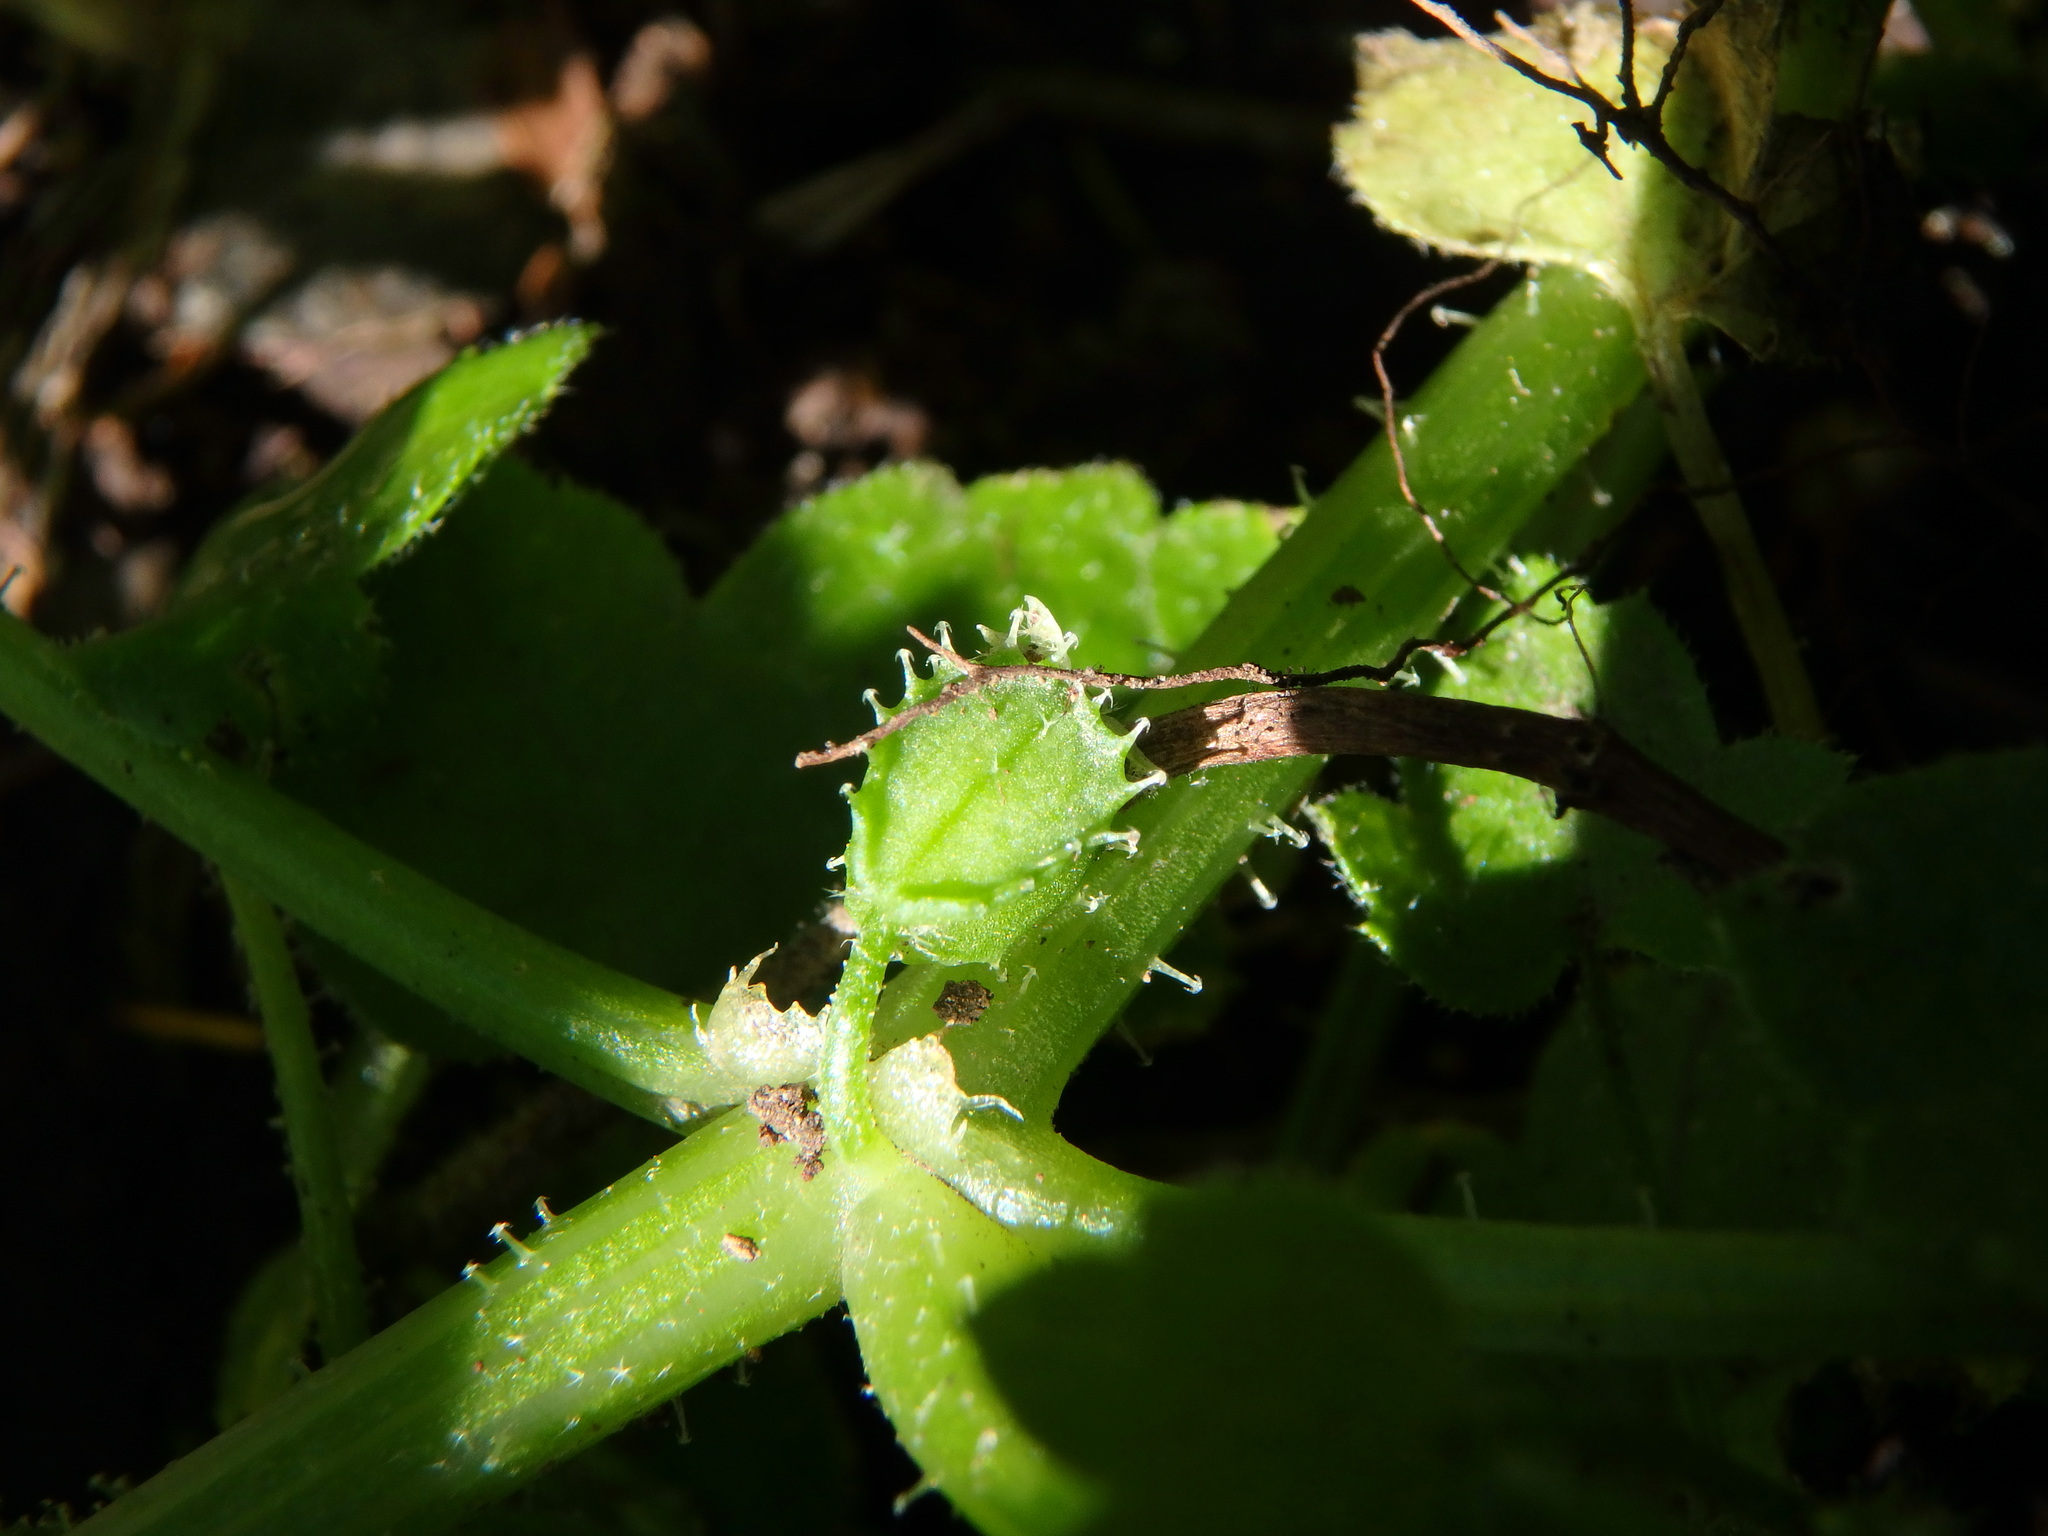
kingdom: Plantae
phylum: Tracheophyta
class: Magnoliopsida
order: Apiales
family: Apiaceae
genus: Drusa
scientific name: Drusa glandulosa
